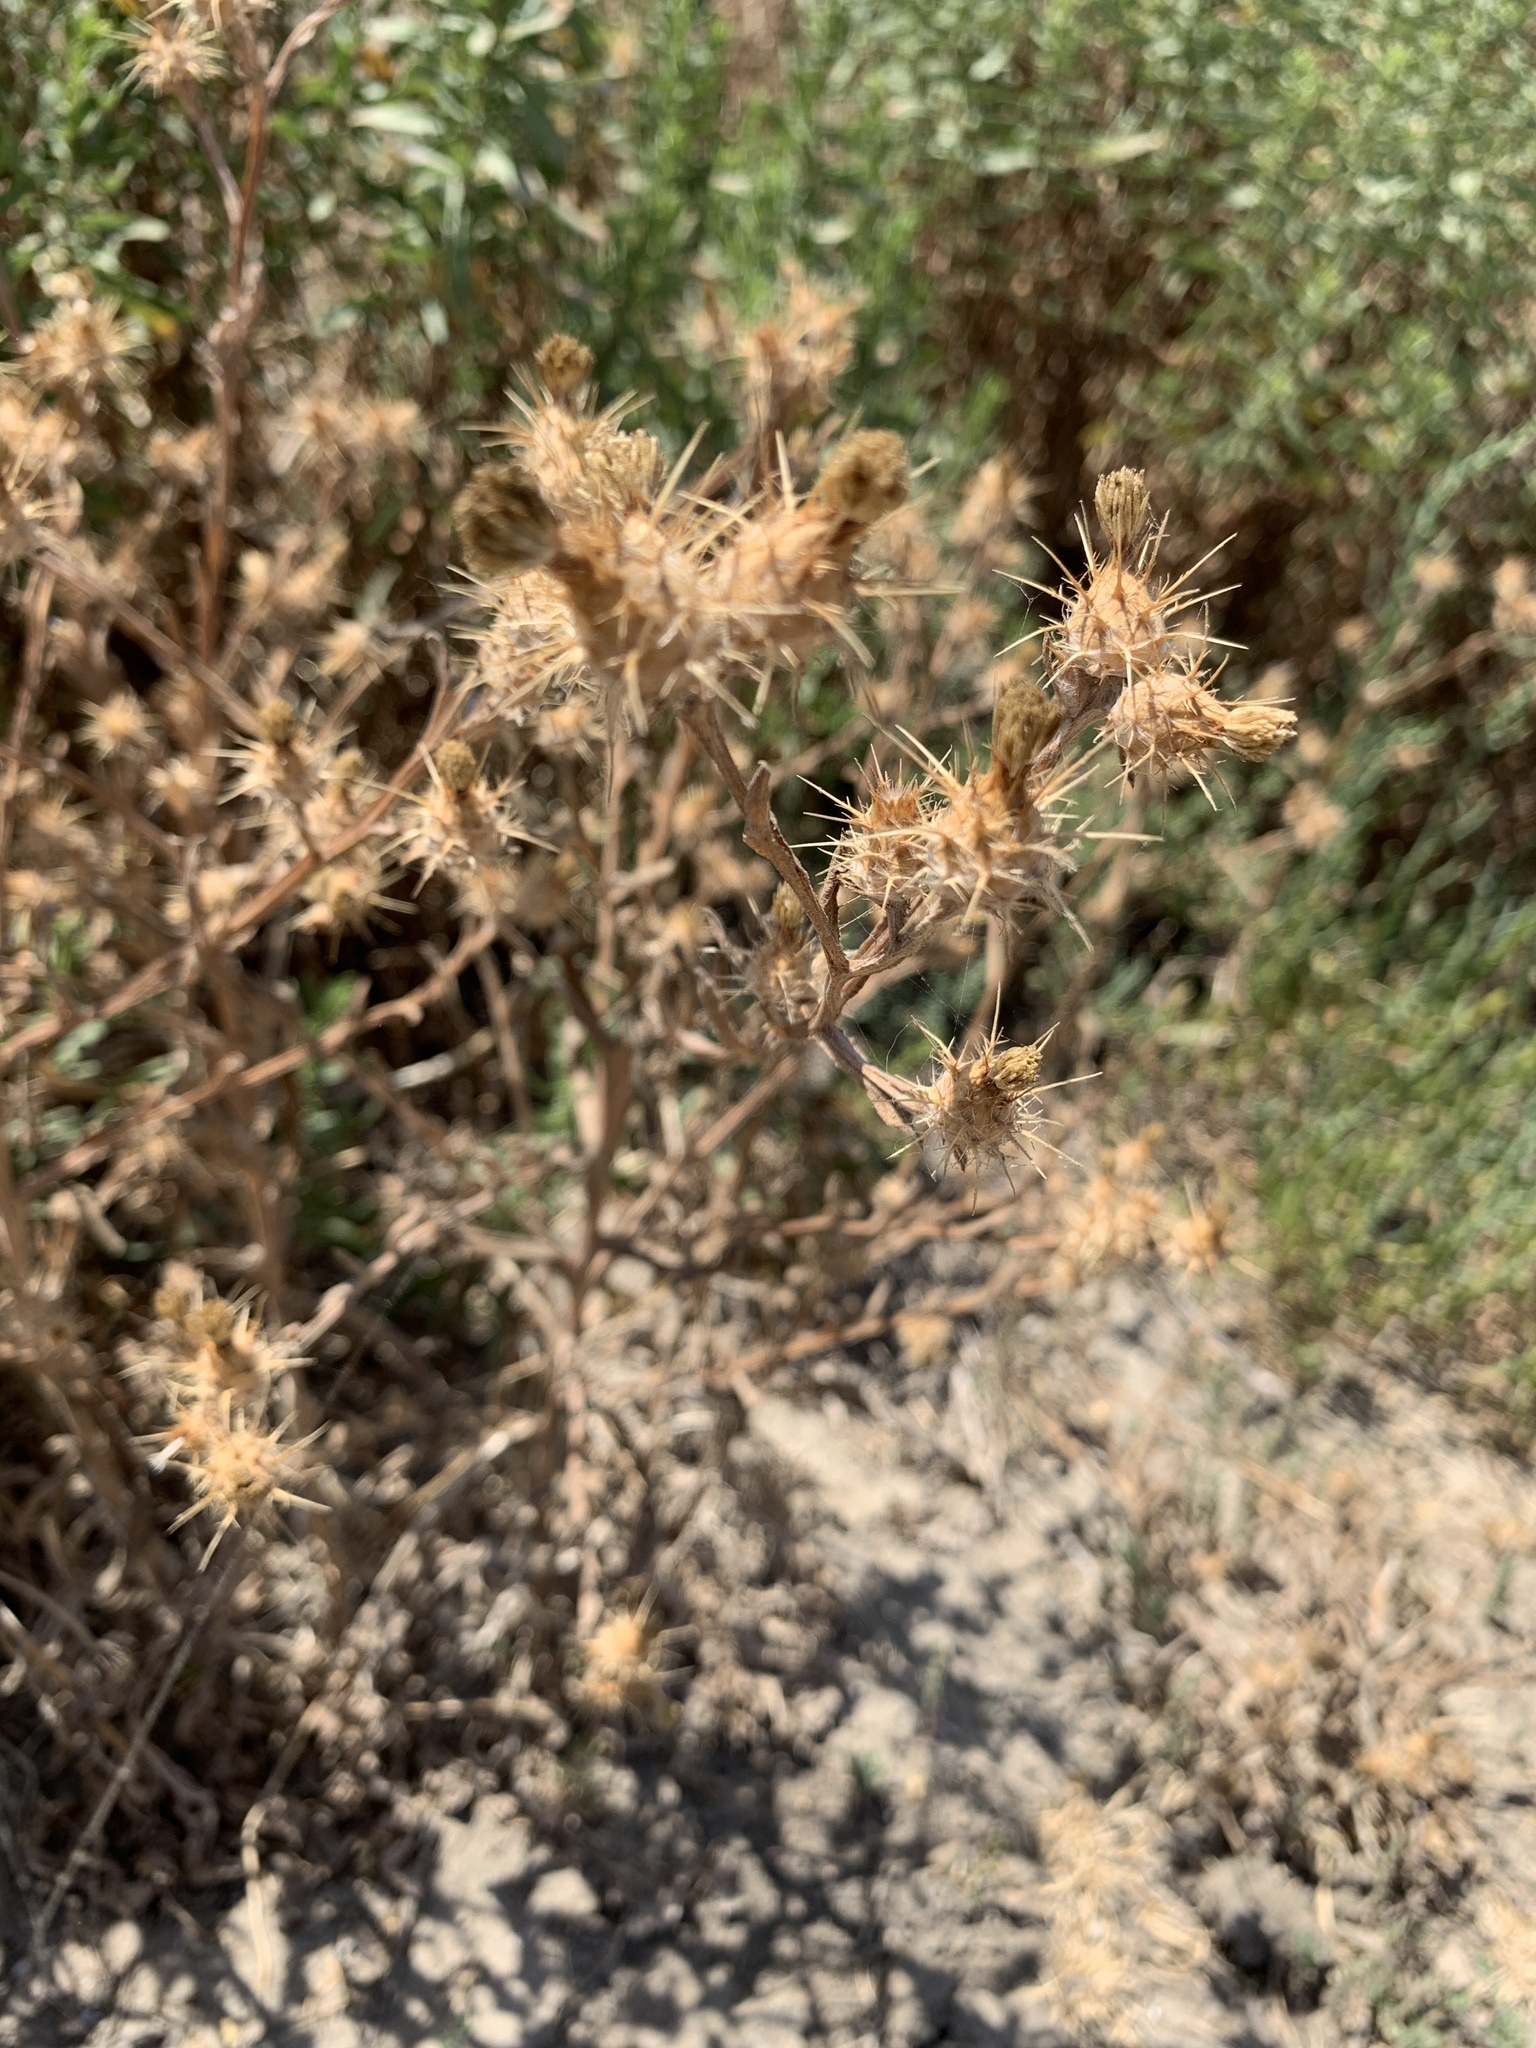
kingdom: Plantae
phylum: Tracheophyta
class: Magnoliopsida
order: Asterales
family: Asteraceae
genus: Centaurea
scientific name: Centaurea melitensis
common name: Maltese star-thistle
